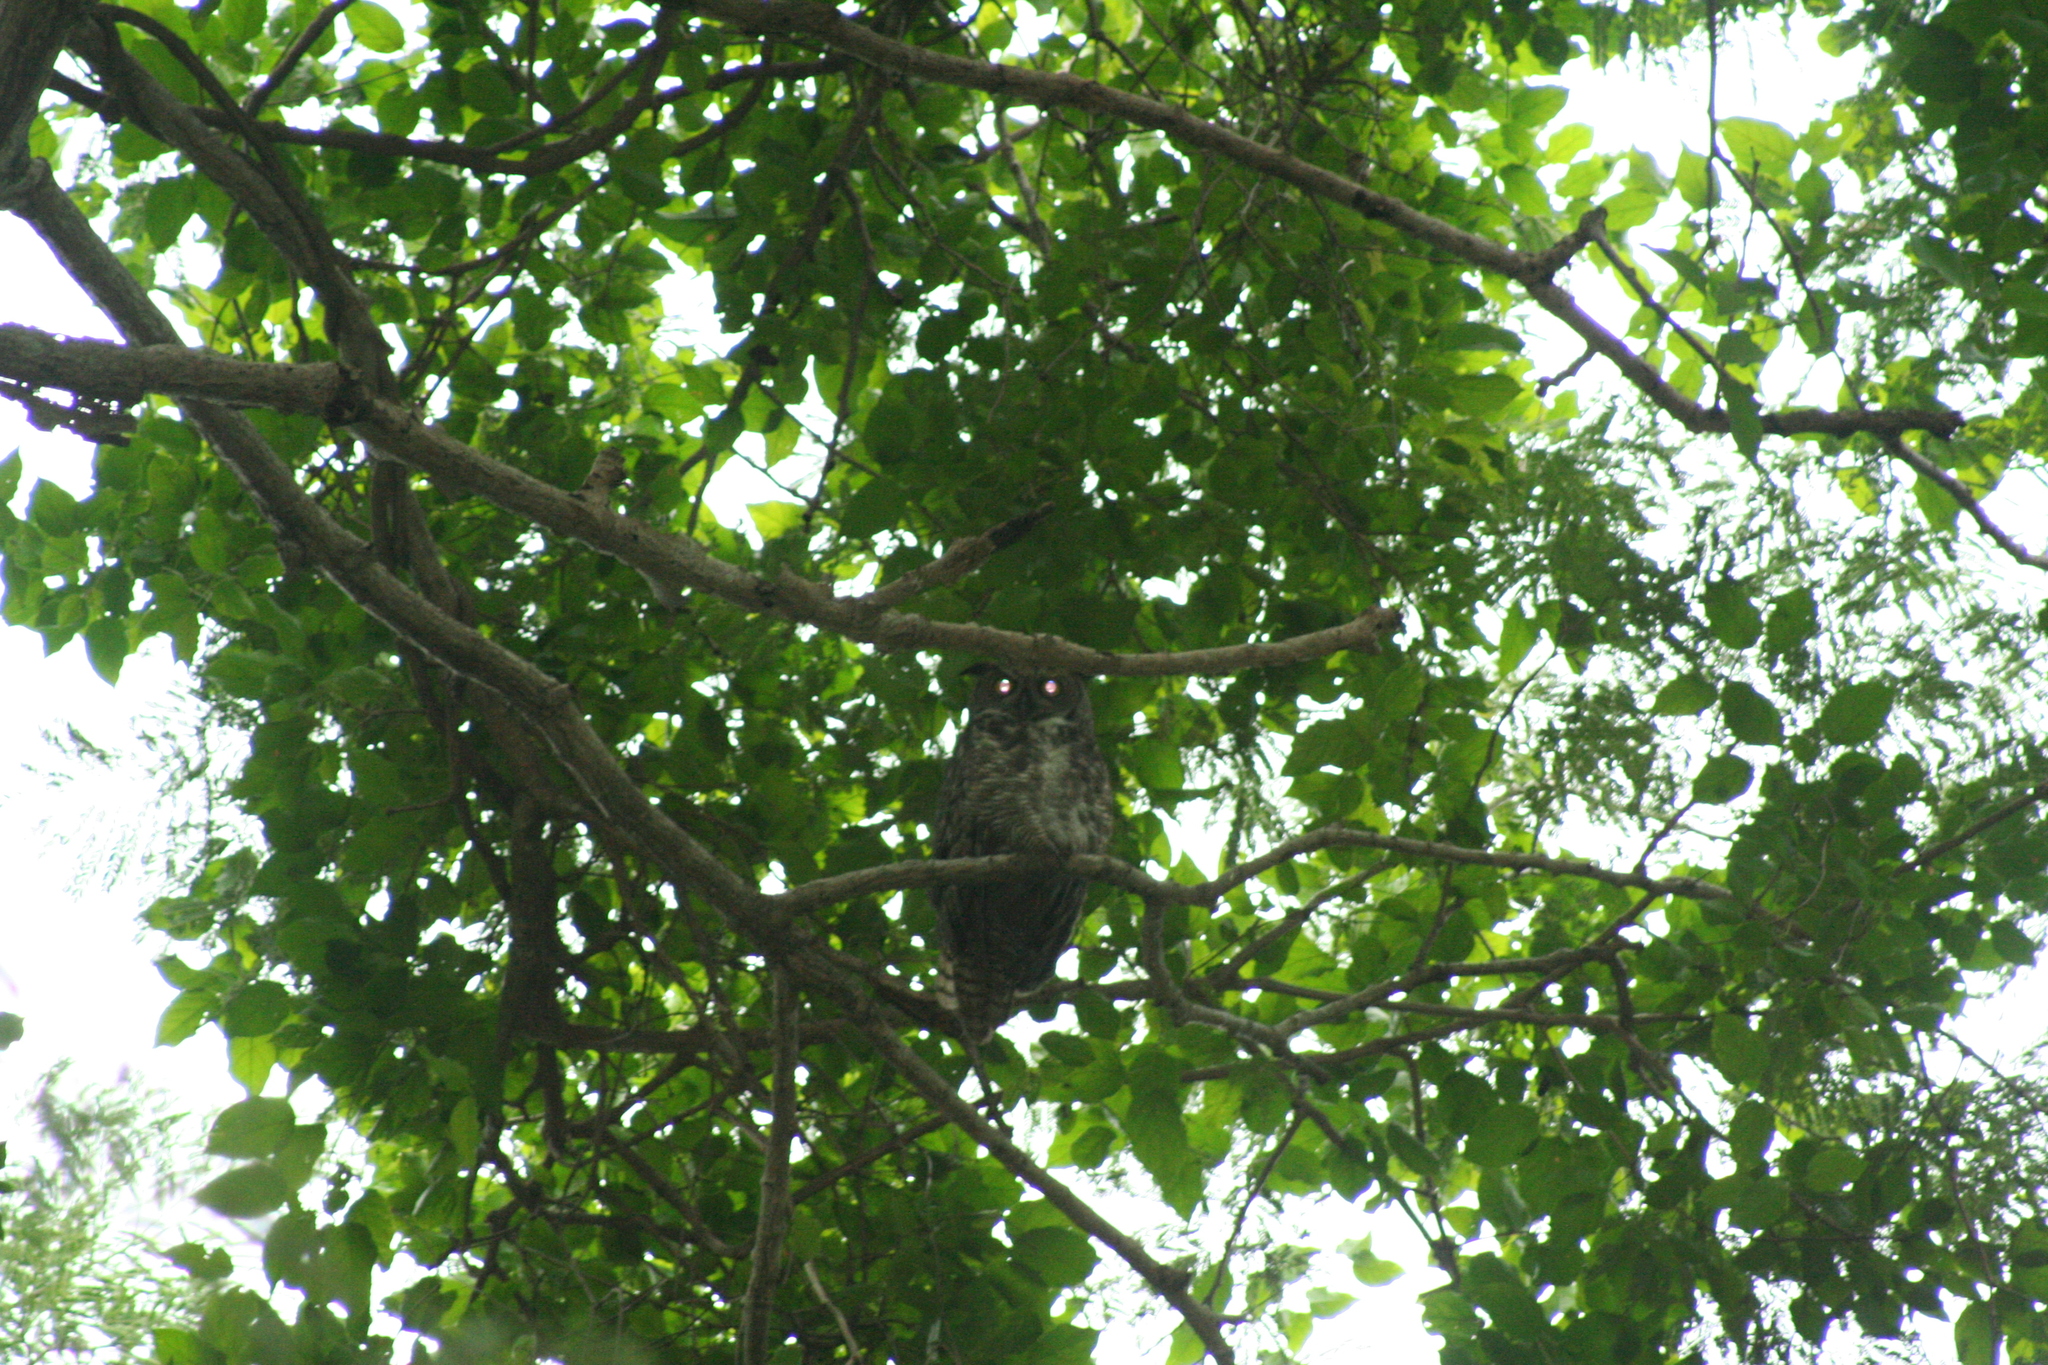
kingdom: Animalia
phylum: Chordata
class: Aves
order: Strigiformes
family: Strigidae
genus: Bubo
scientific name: Bubo virginianus
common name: Great horned owl
